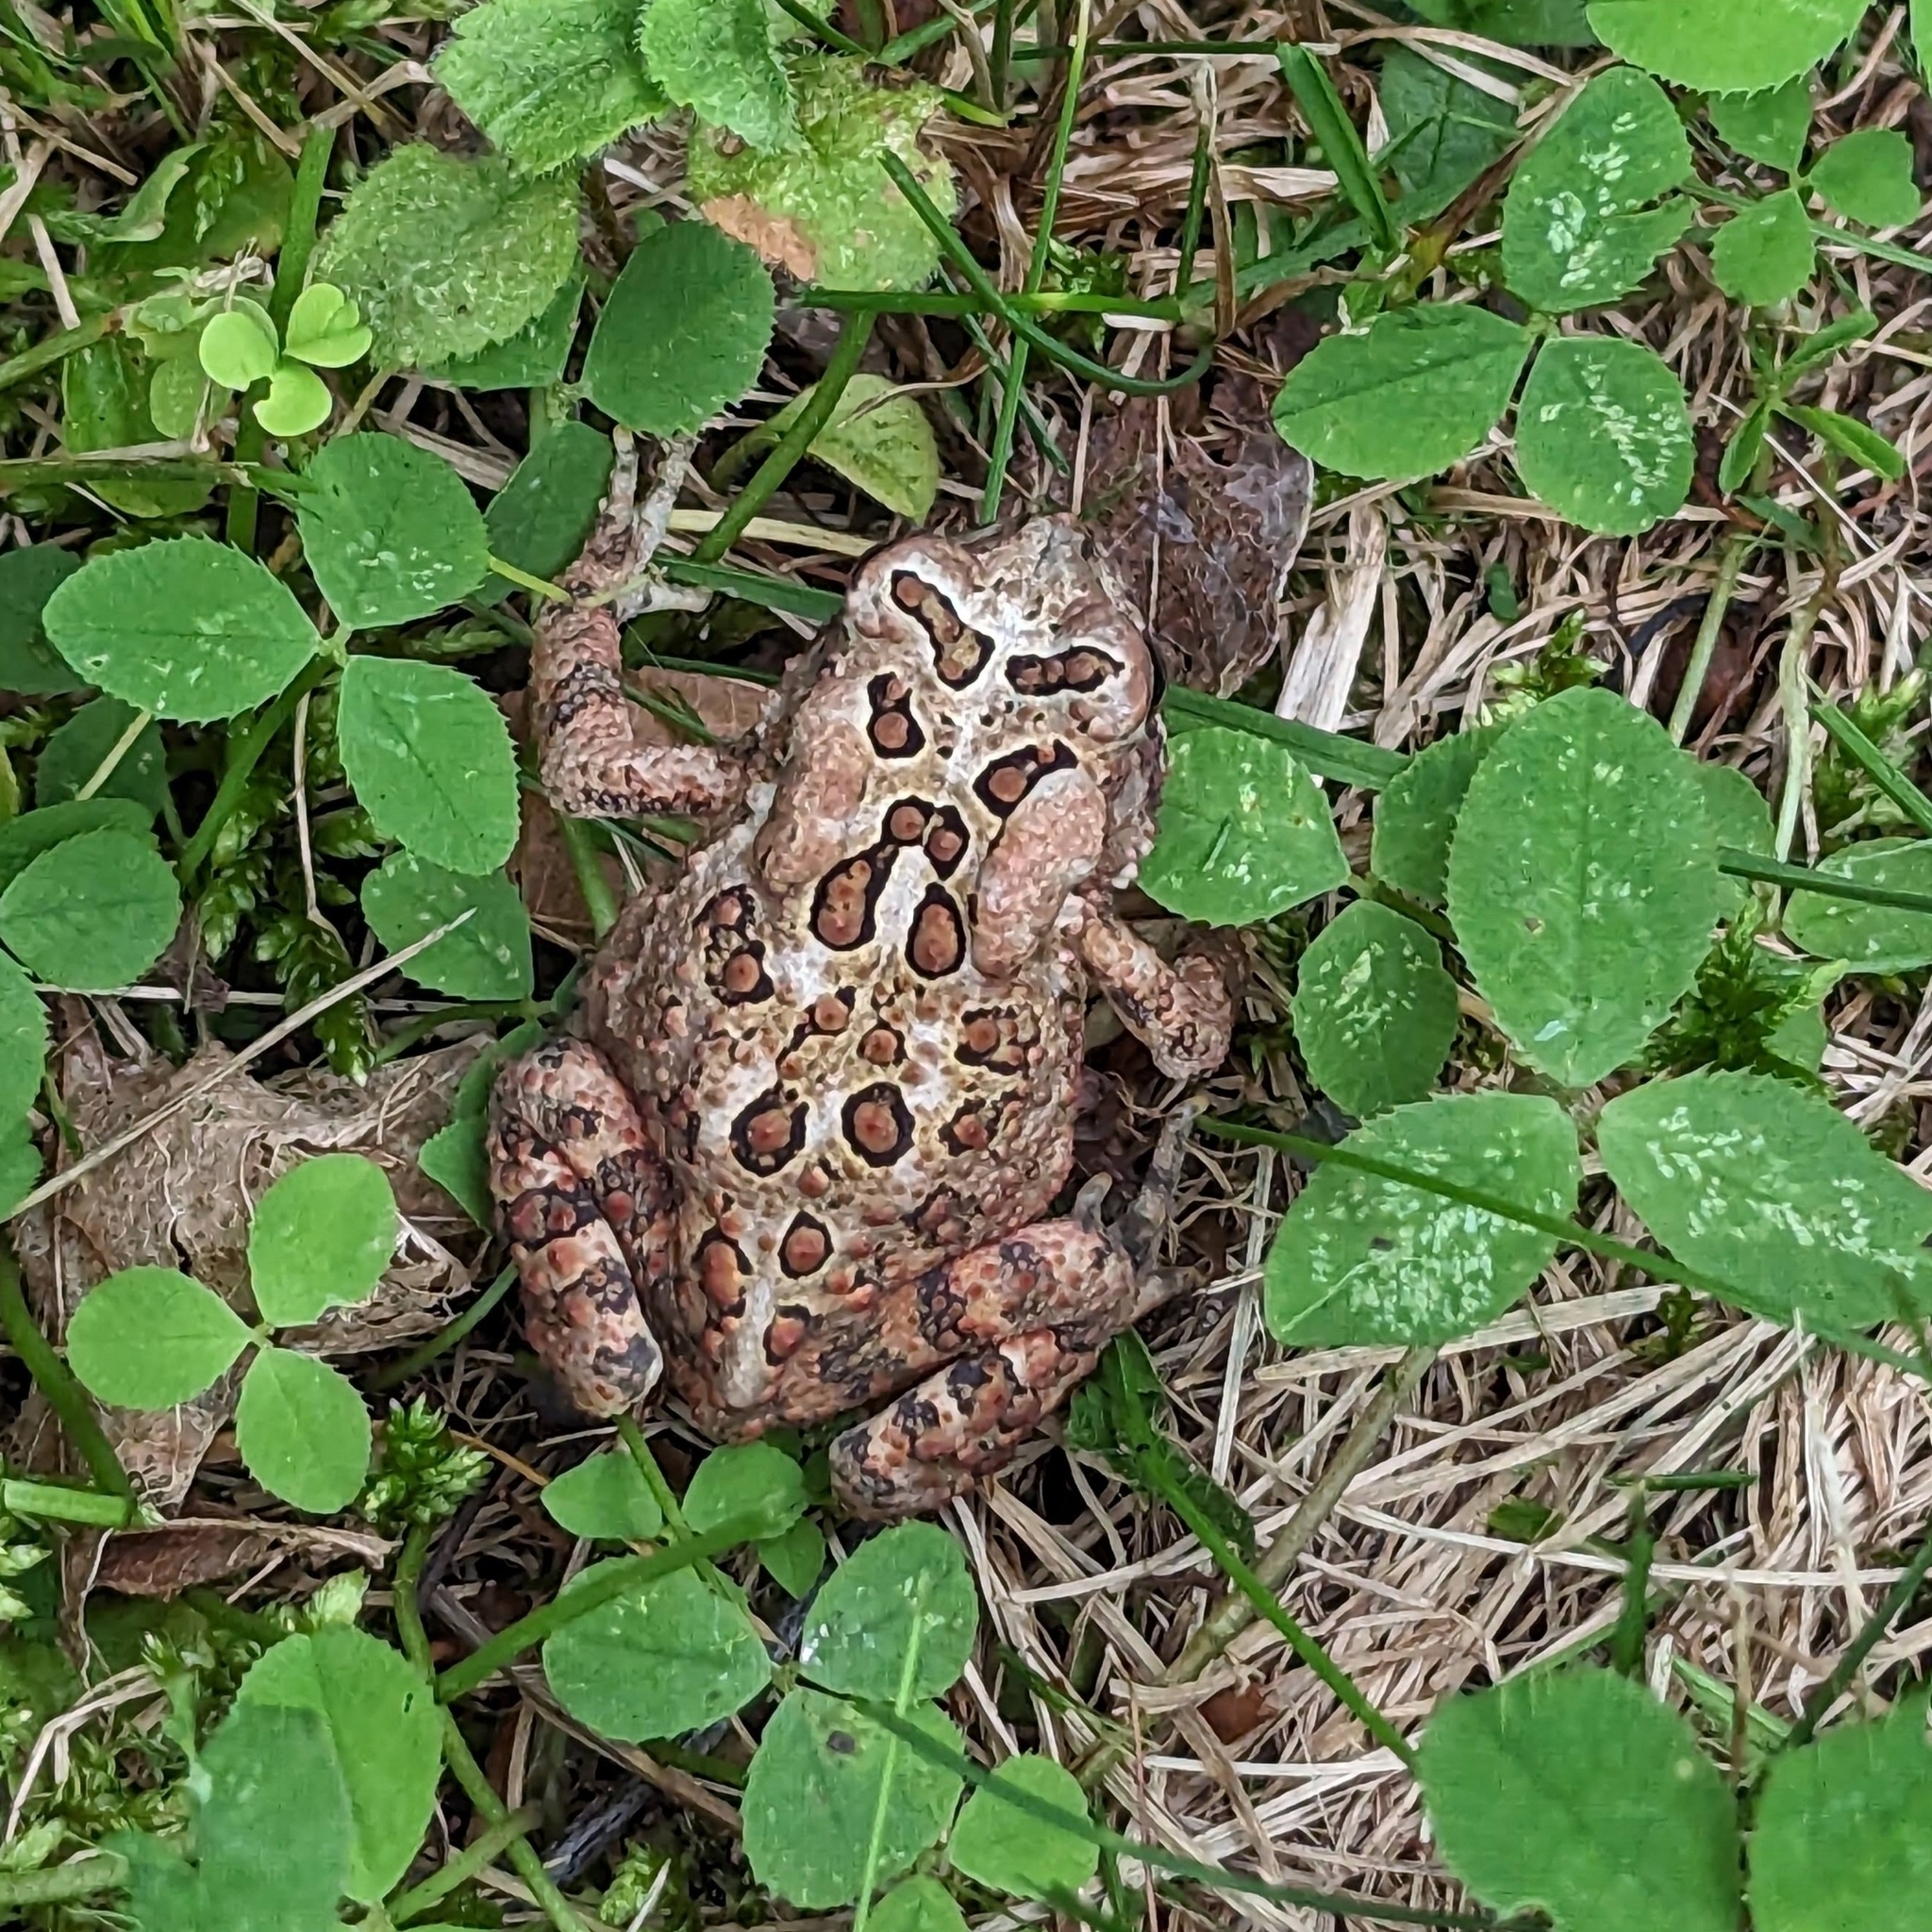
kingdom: Animalia
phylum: Chordata
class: Amphibia
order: Anura
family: Bufonidae
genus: Anaxyrus
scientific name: Anaxyrus americanus
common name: American toad
